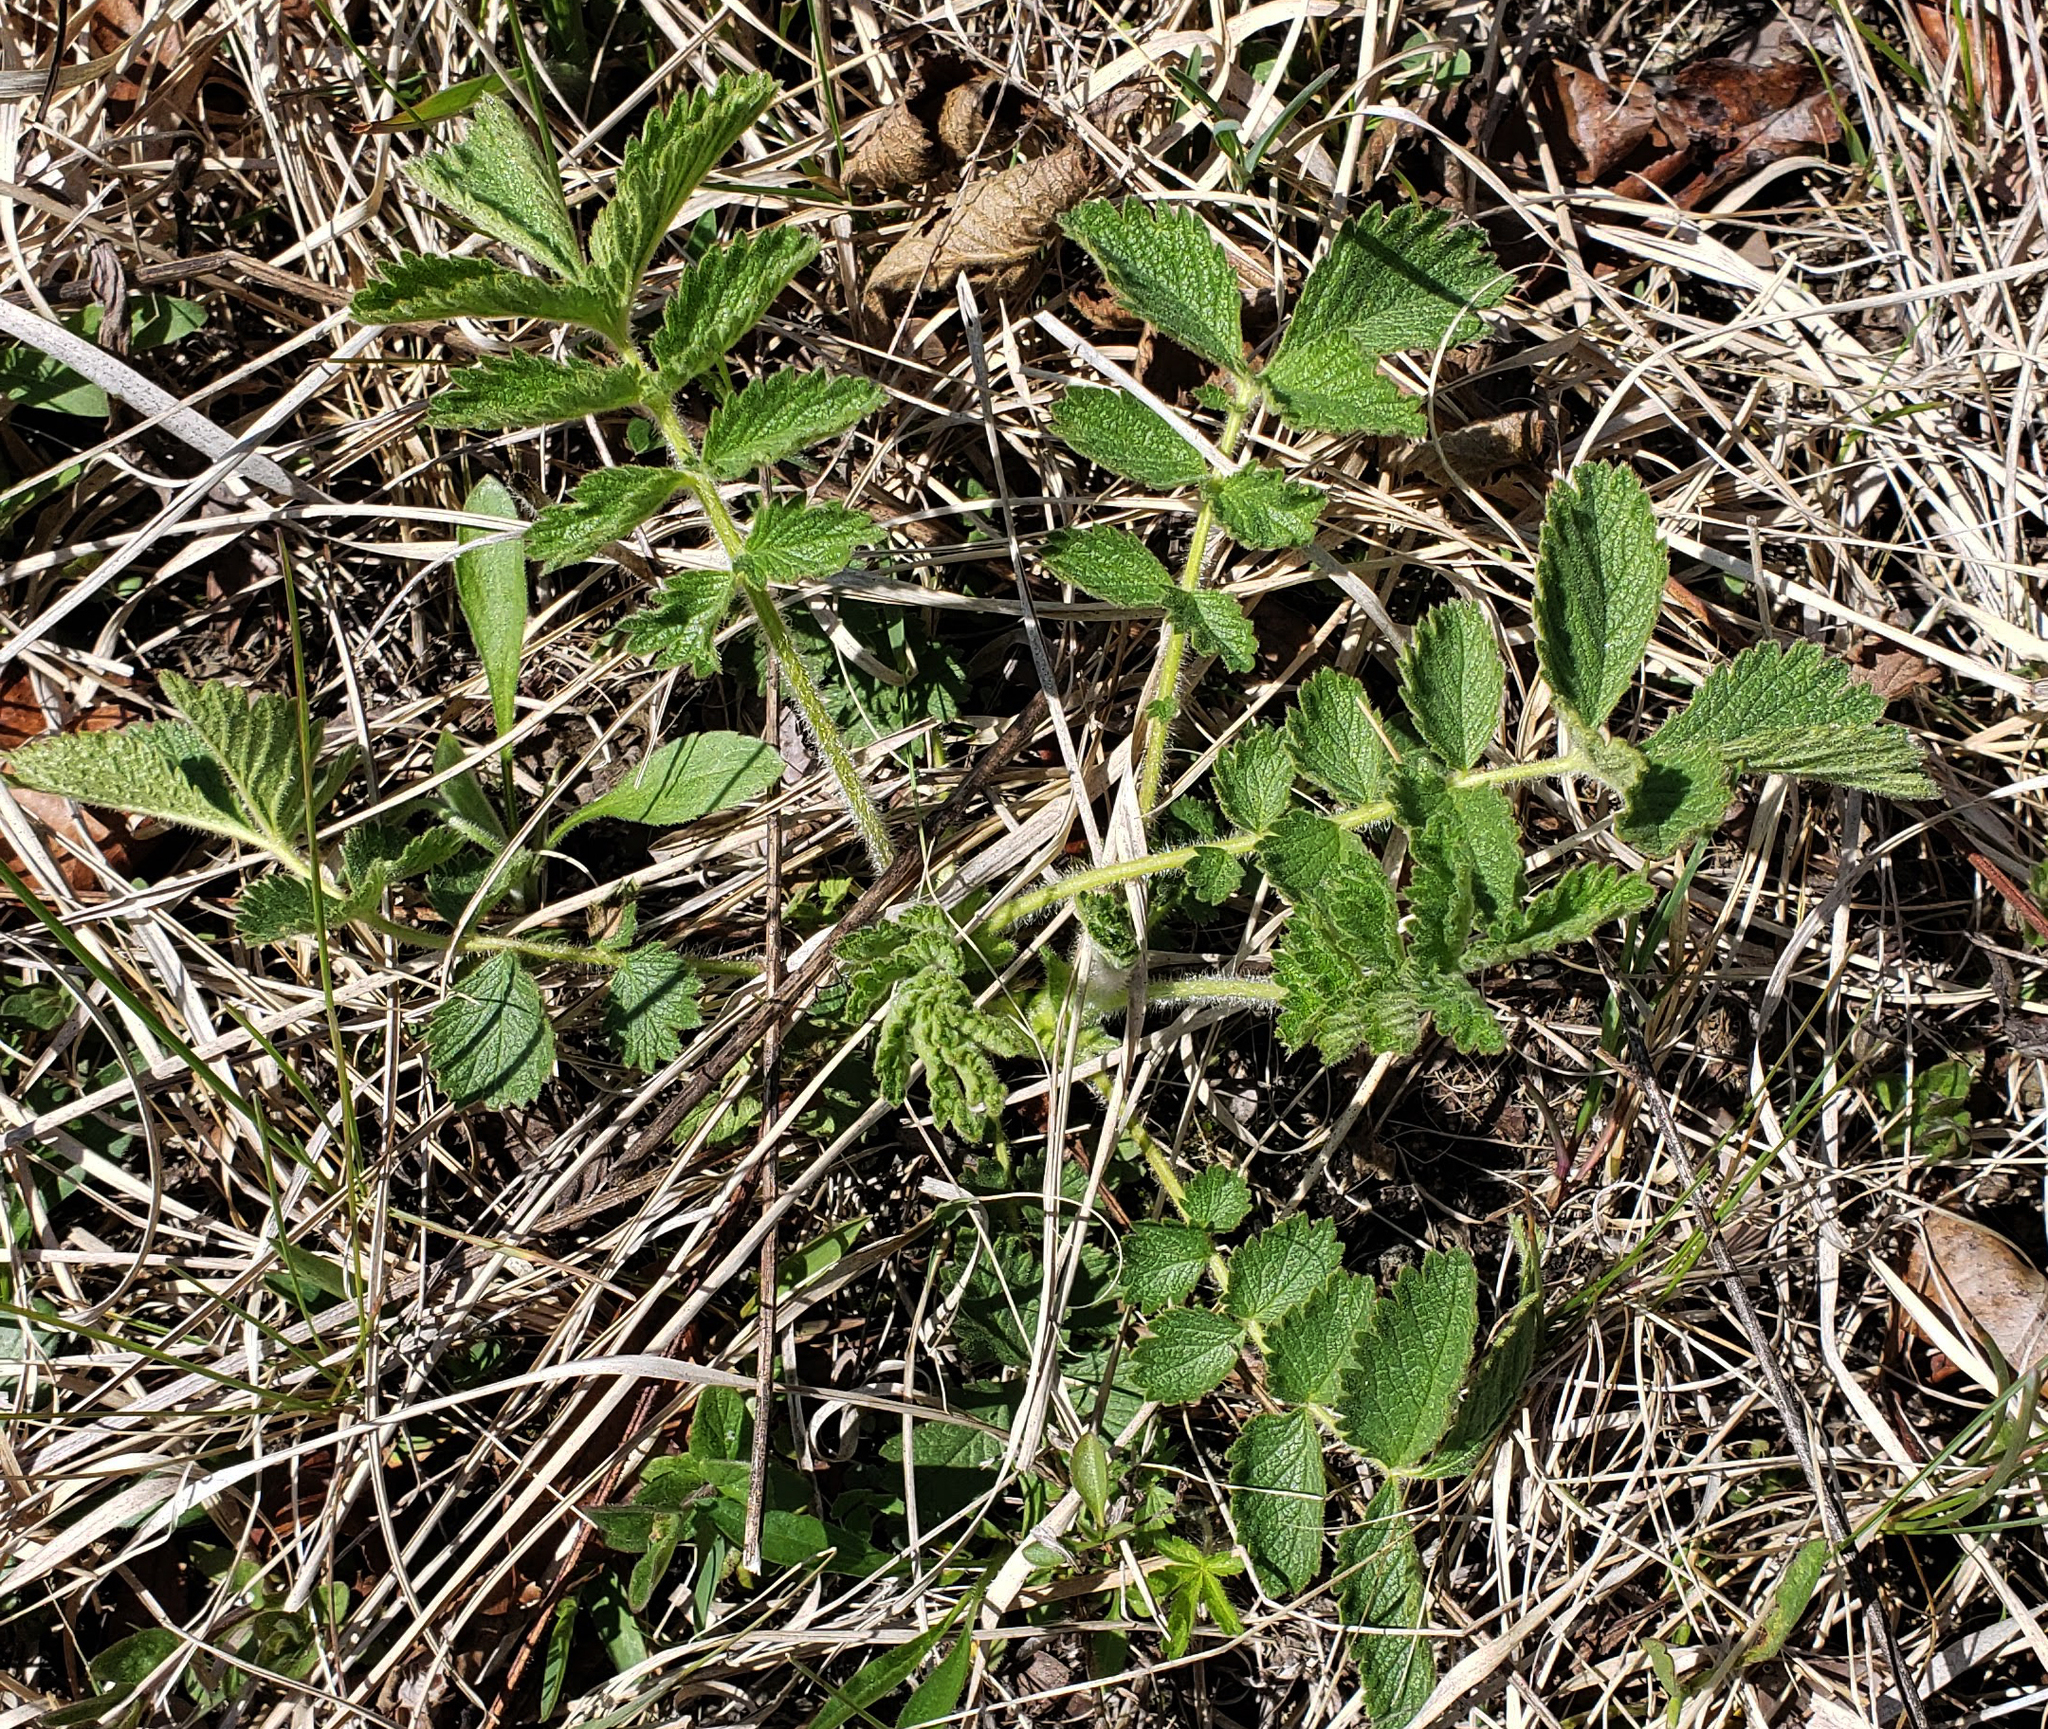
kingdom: Plantae
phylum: Tracheophyta
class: Magnoliopsida
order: Rosales
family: Rosaceae
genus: Drymocallis
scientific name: Drymocallis arguta
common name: Tall cinquefoil
